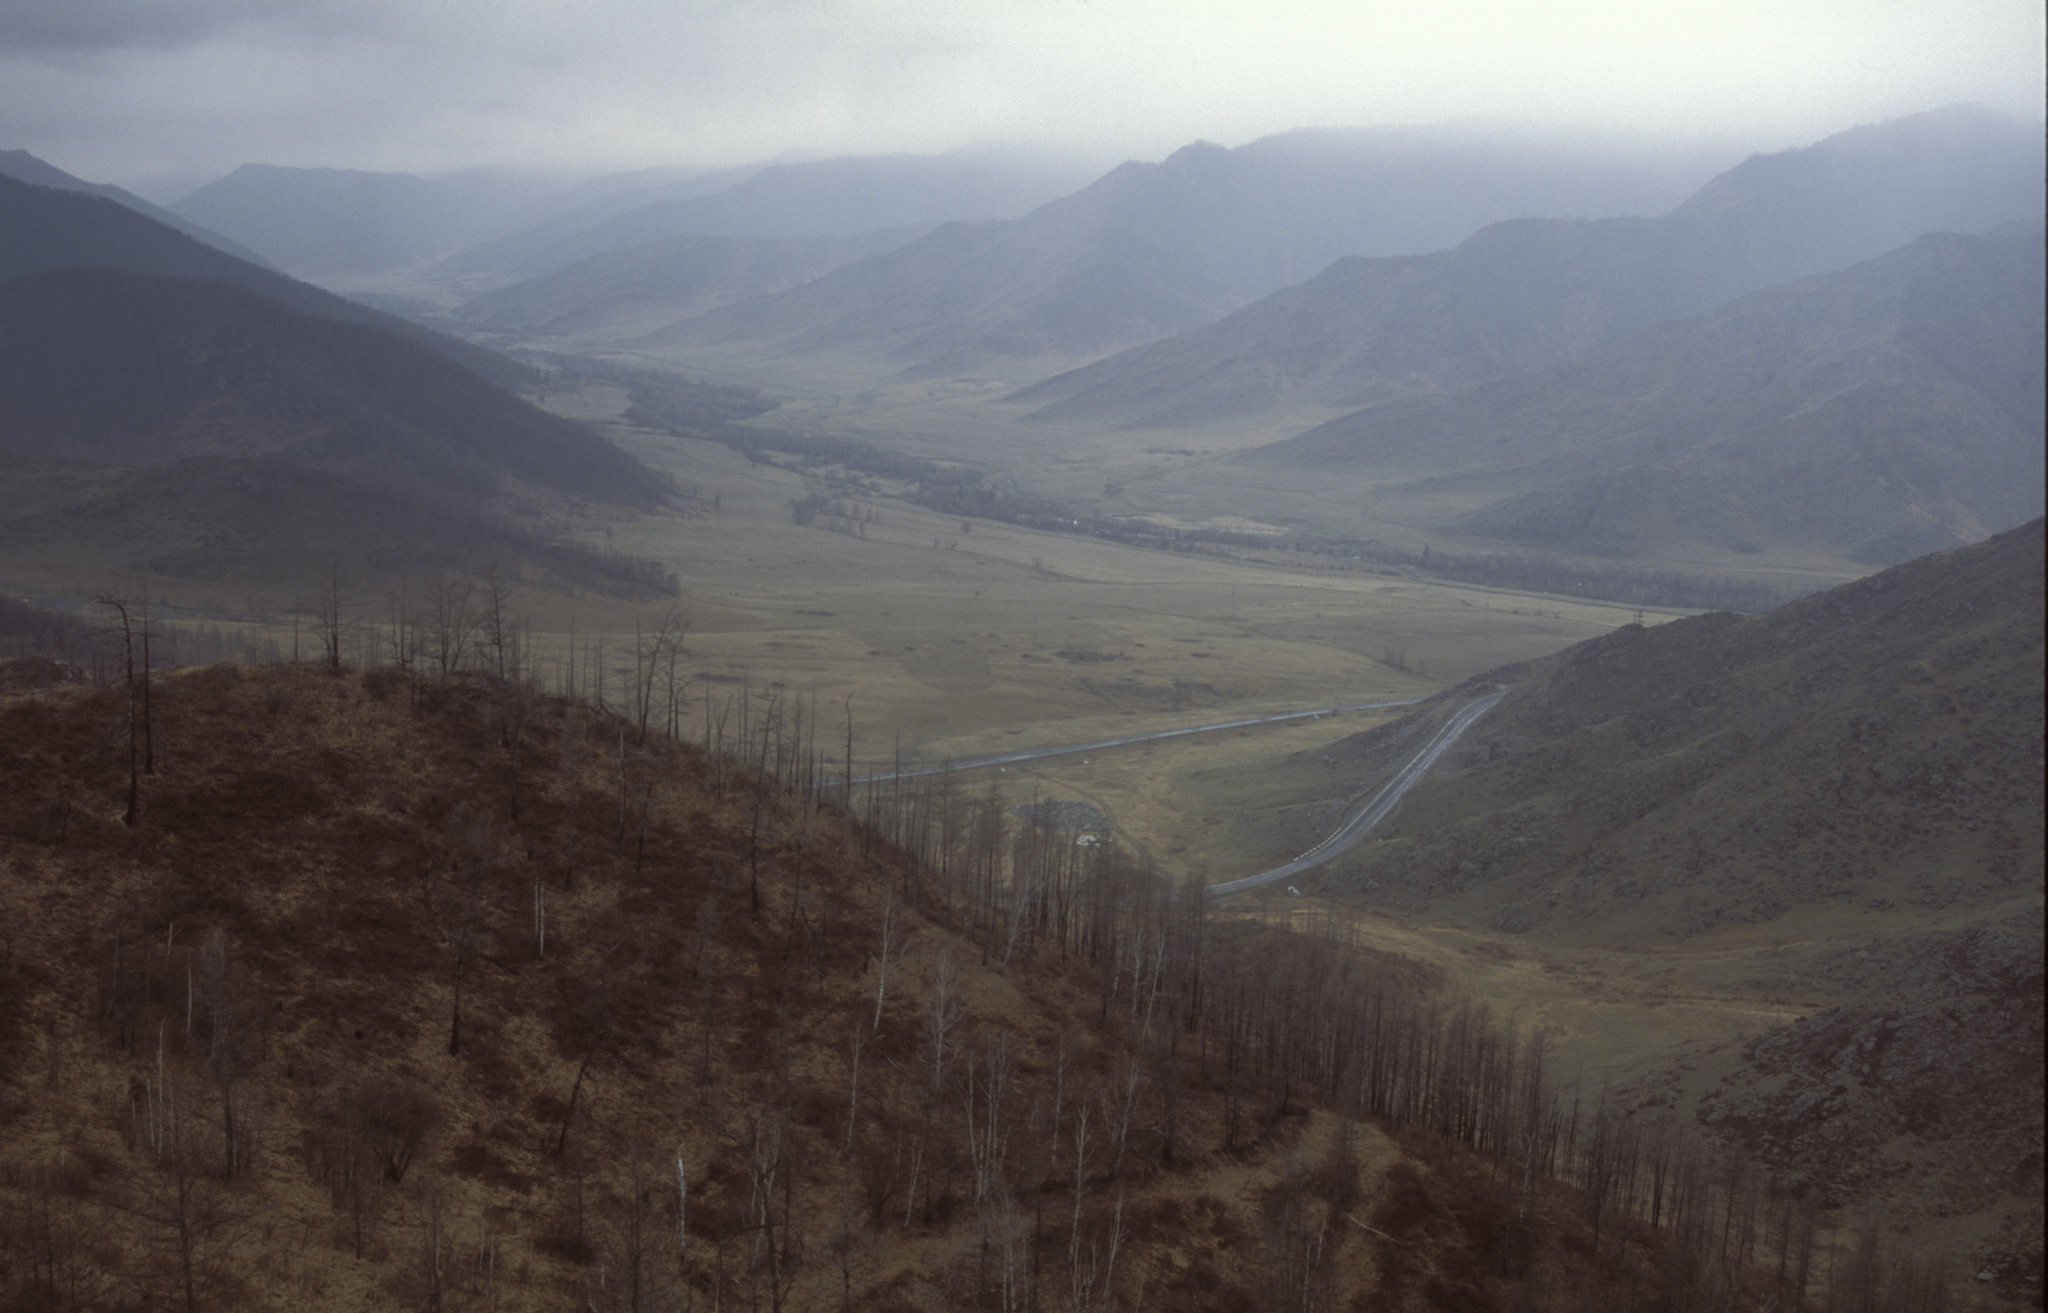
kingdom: Plantae
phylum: Tracheophyta
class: Pinopsida
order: Pinales
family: Pinaceae
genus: Larix
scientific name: Larix sibirica
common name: Siberian larch
